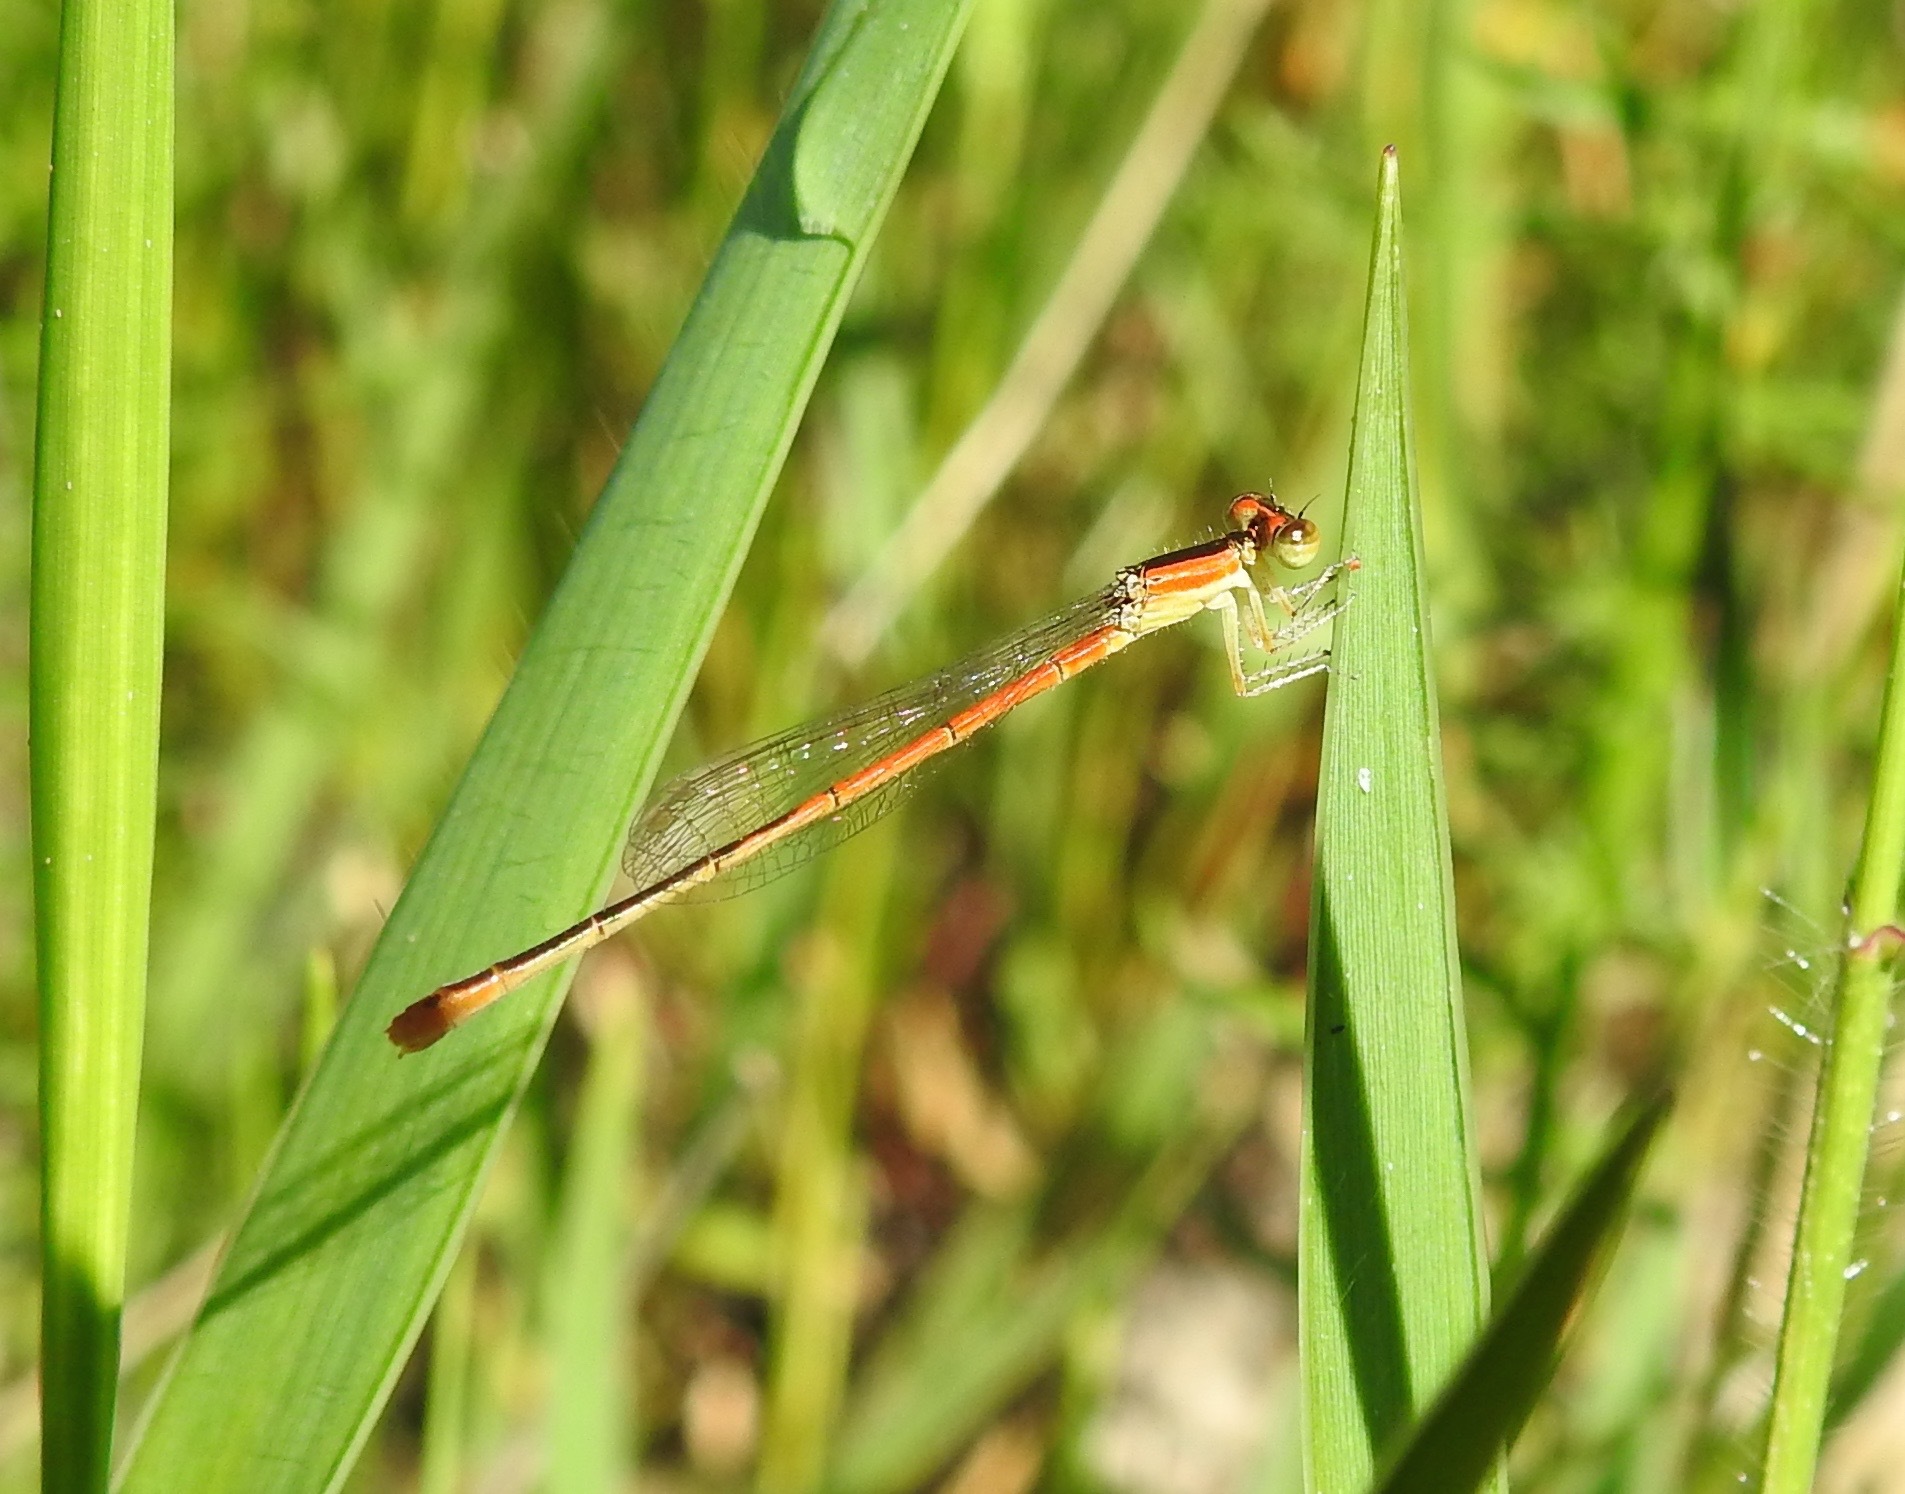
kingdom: Animalia
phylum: Arthropoda
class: Insecta
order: Odonata
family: Coenagrionidae
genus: Ischnura
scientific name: Ischnura hastata
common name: Citrine forktail
